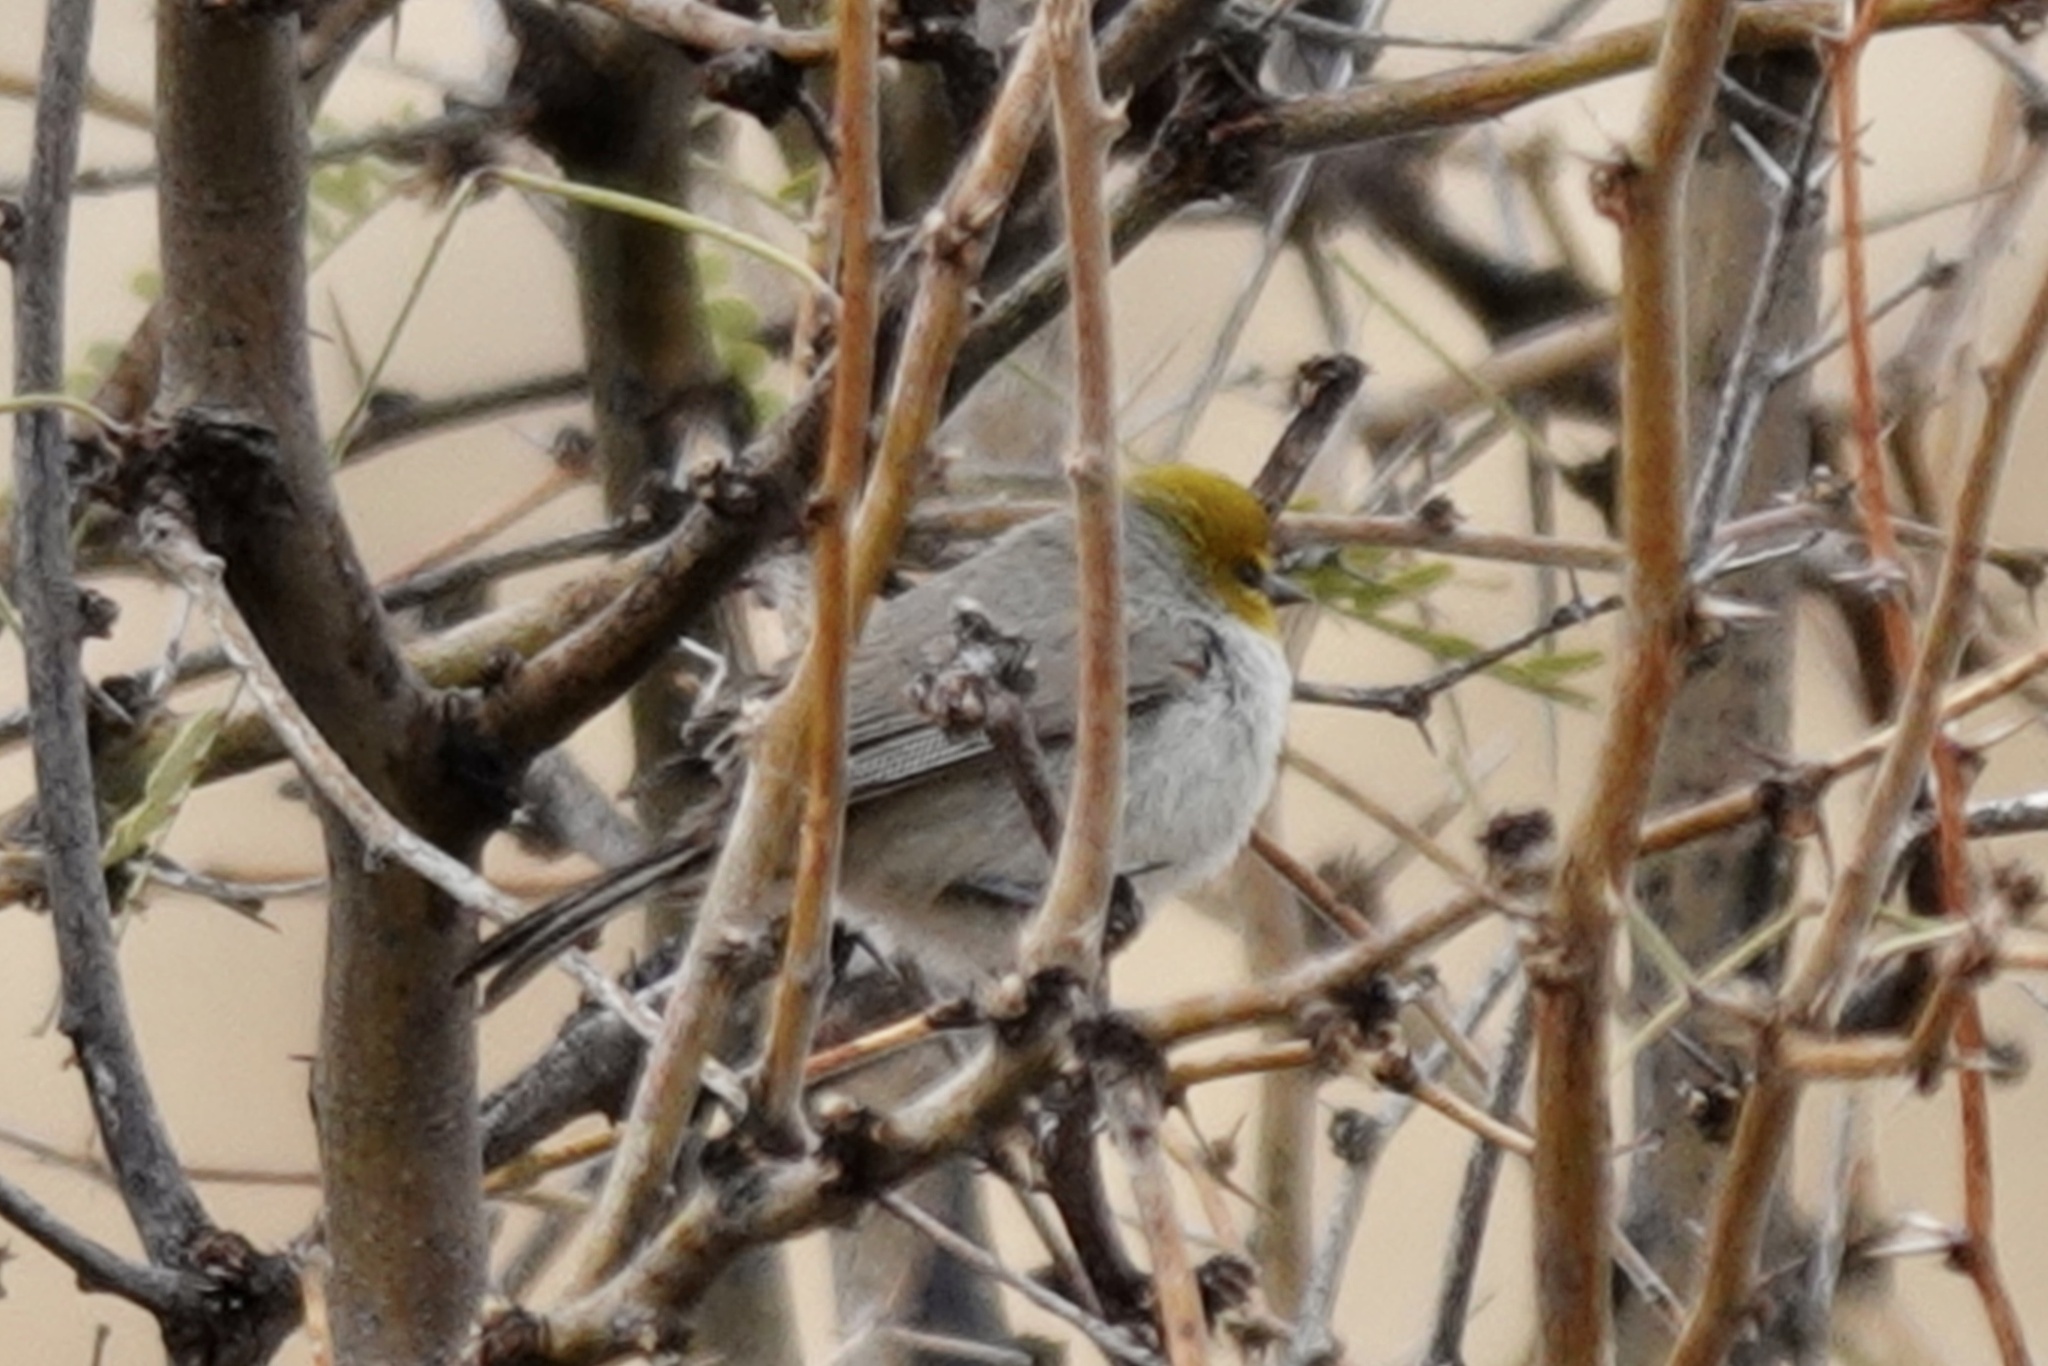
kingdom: Animalia
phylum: Chordata
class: Aves
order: Passeriformes
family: Remizidae
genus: Auriparus
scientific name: Auriparus flaviceps
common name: Verdin
